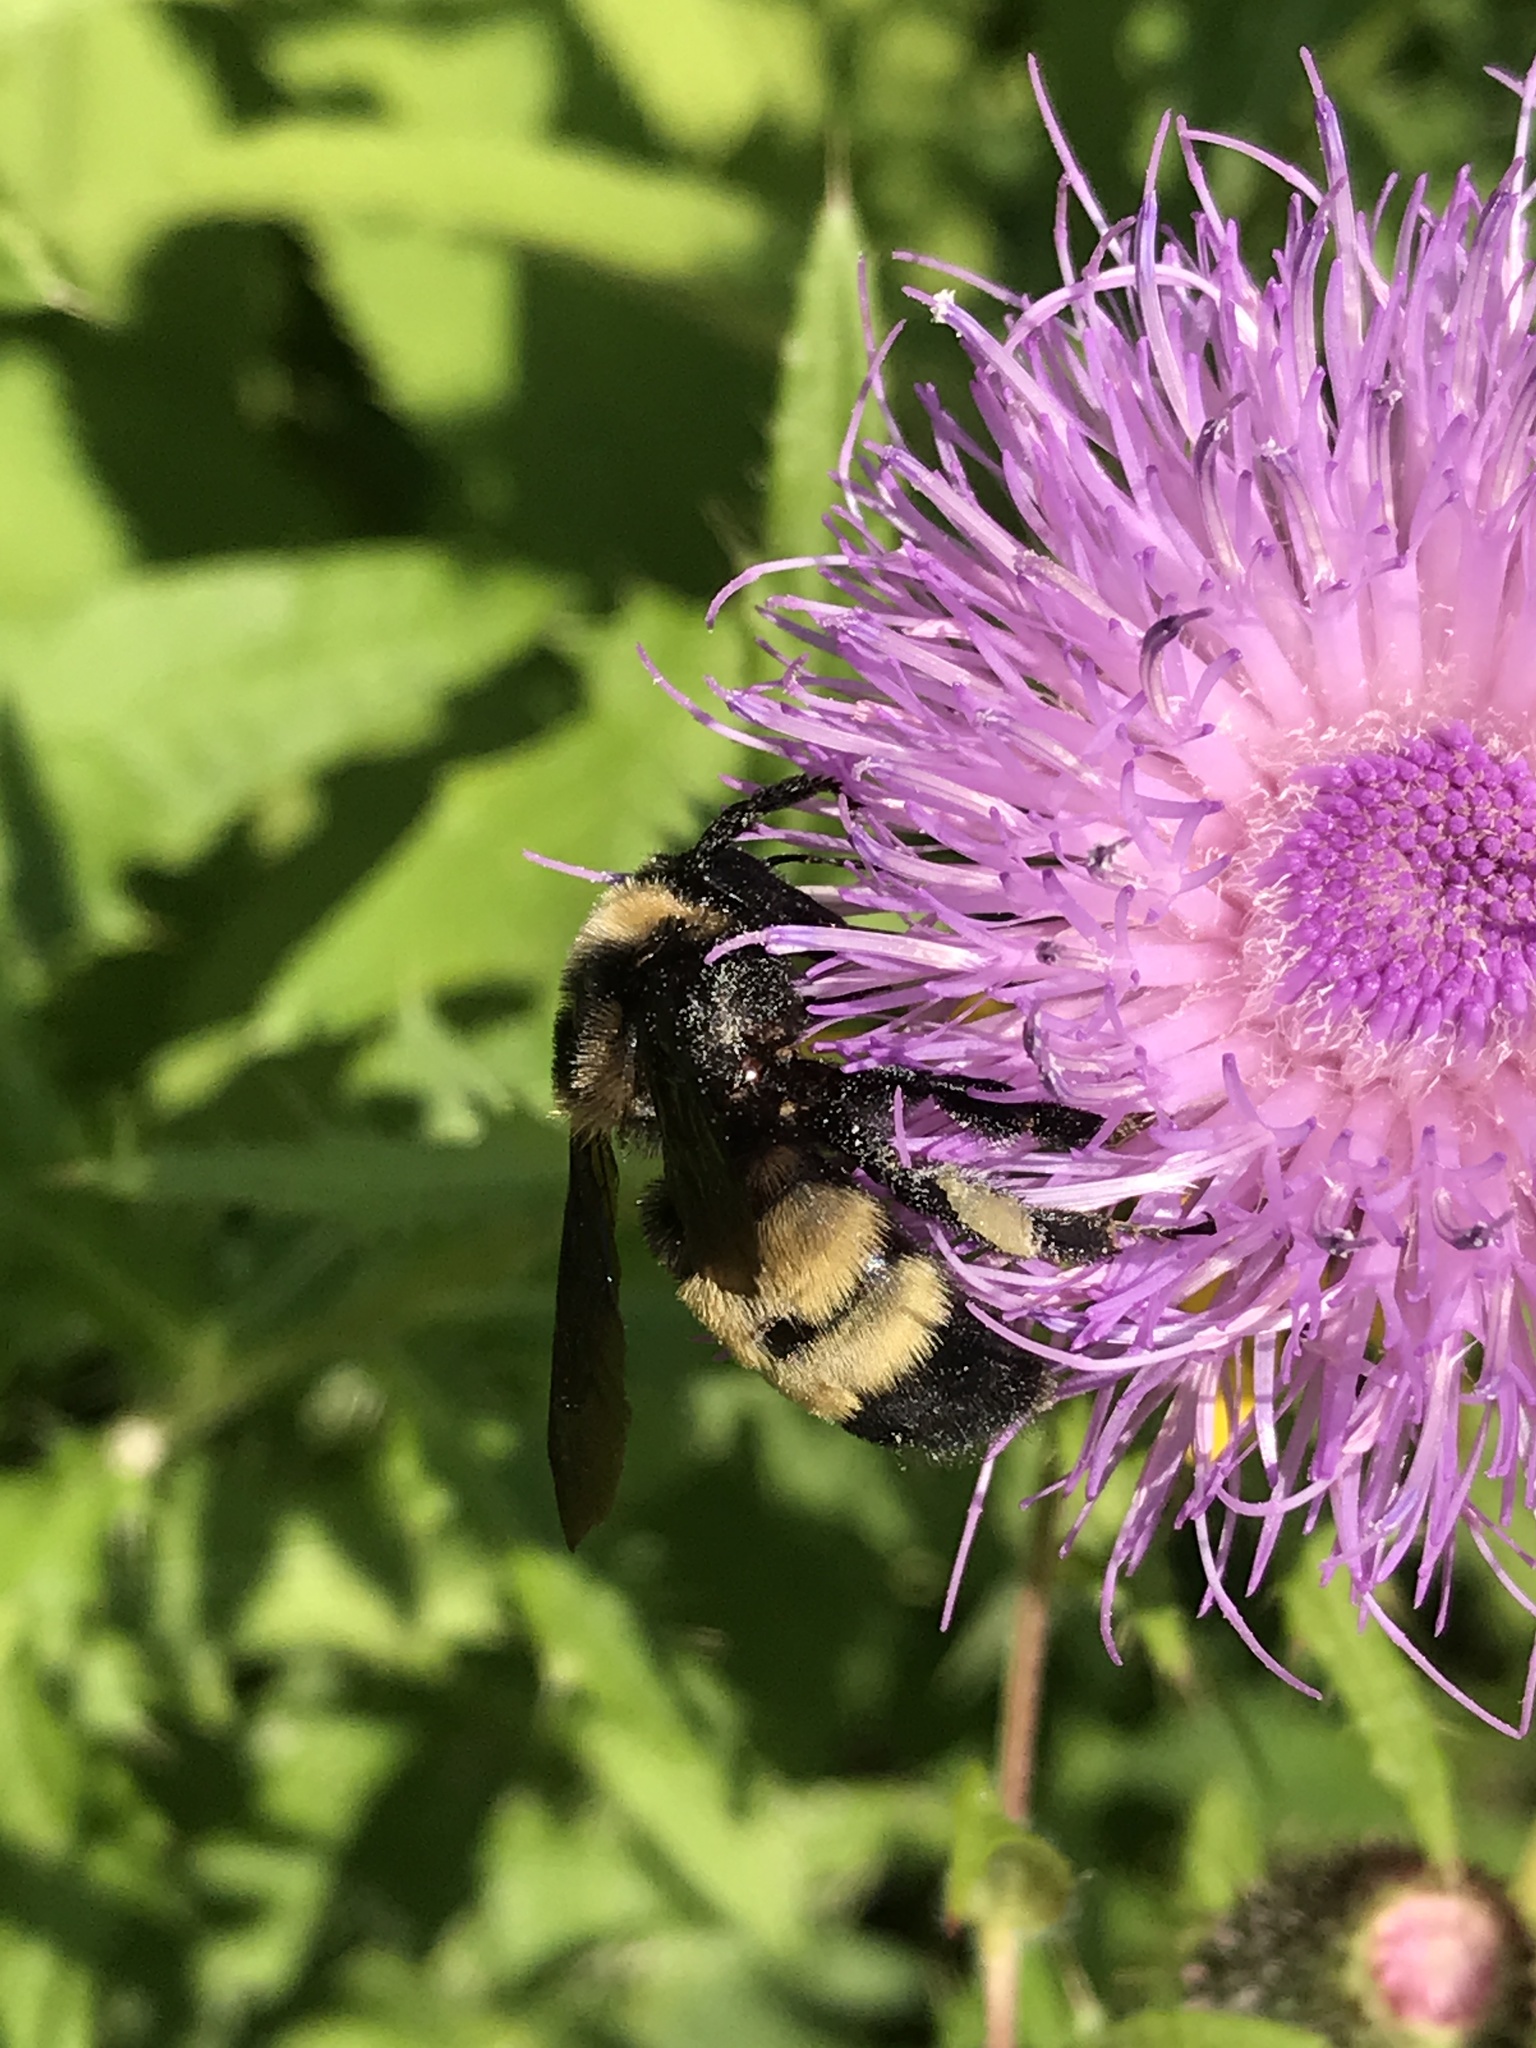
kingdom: Animalia
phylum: Arthropoda
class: Insecta
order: Hymenoptera
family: Apidae
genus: Bombus
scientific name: Bombus auricomus
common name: Black and gold bumble bee
